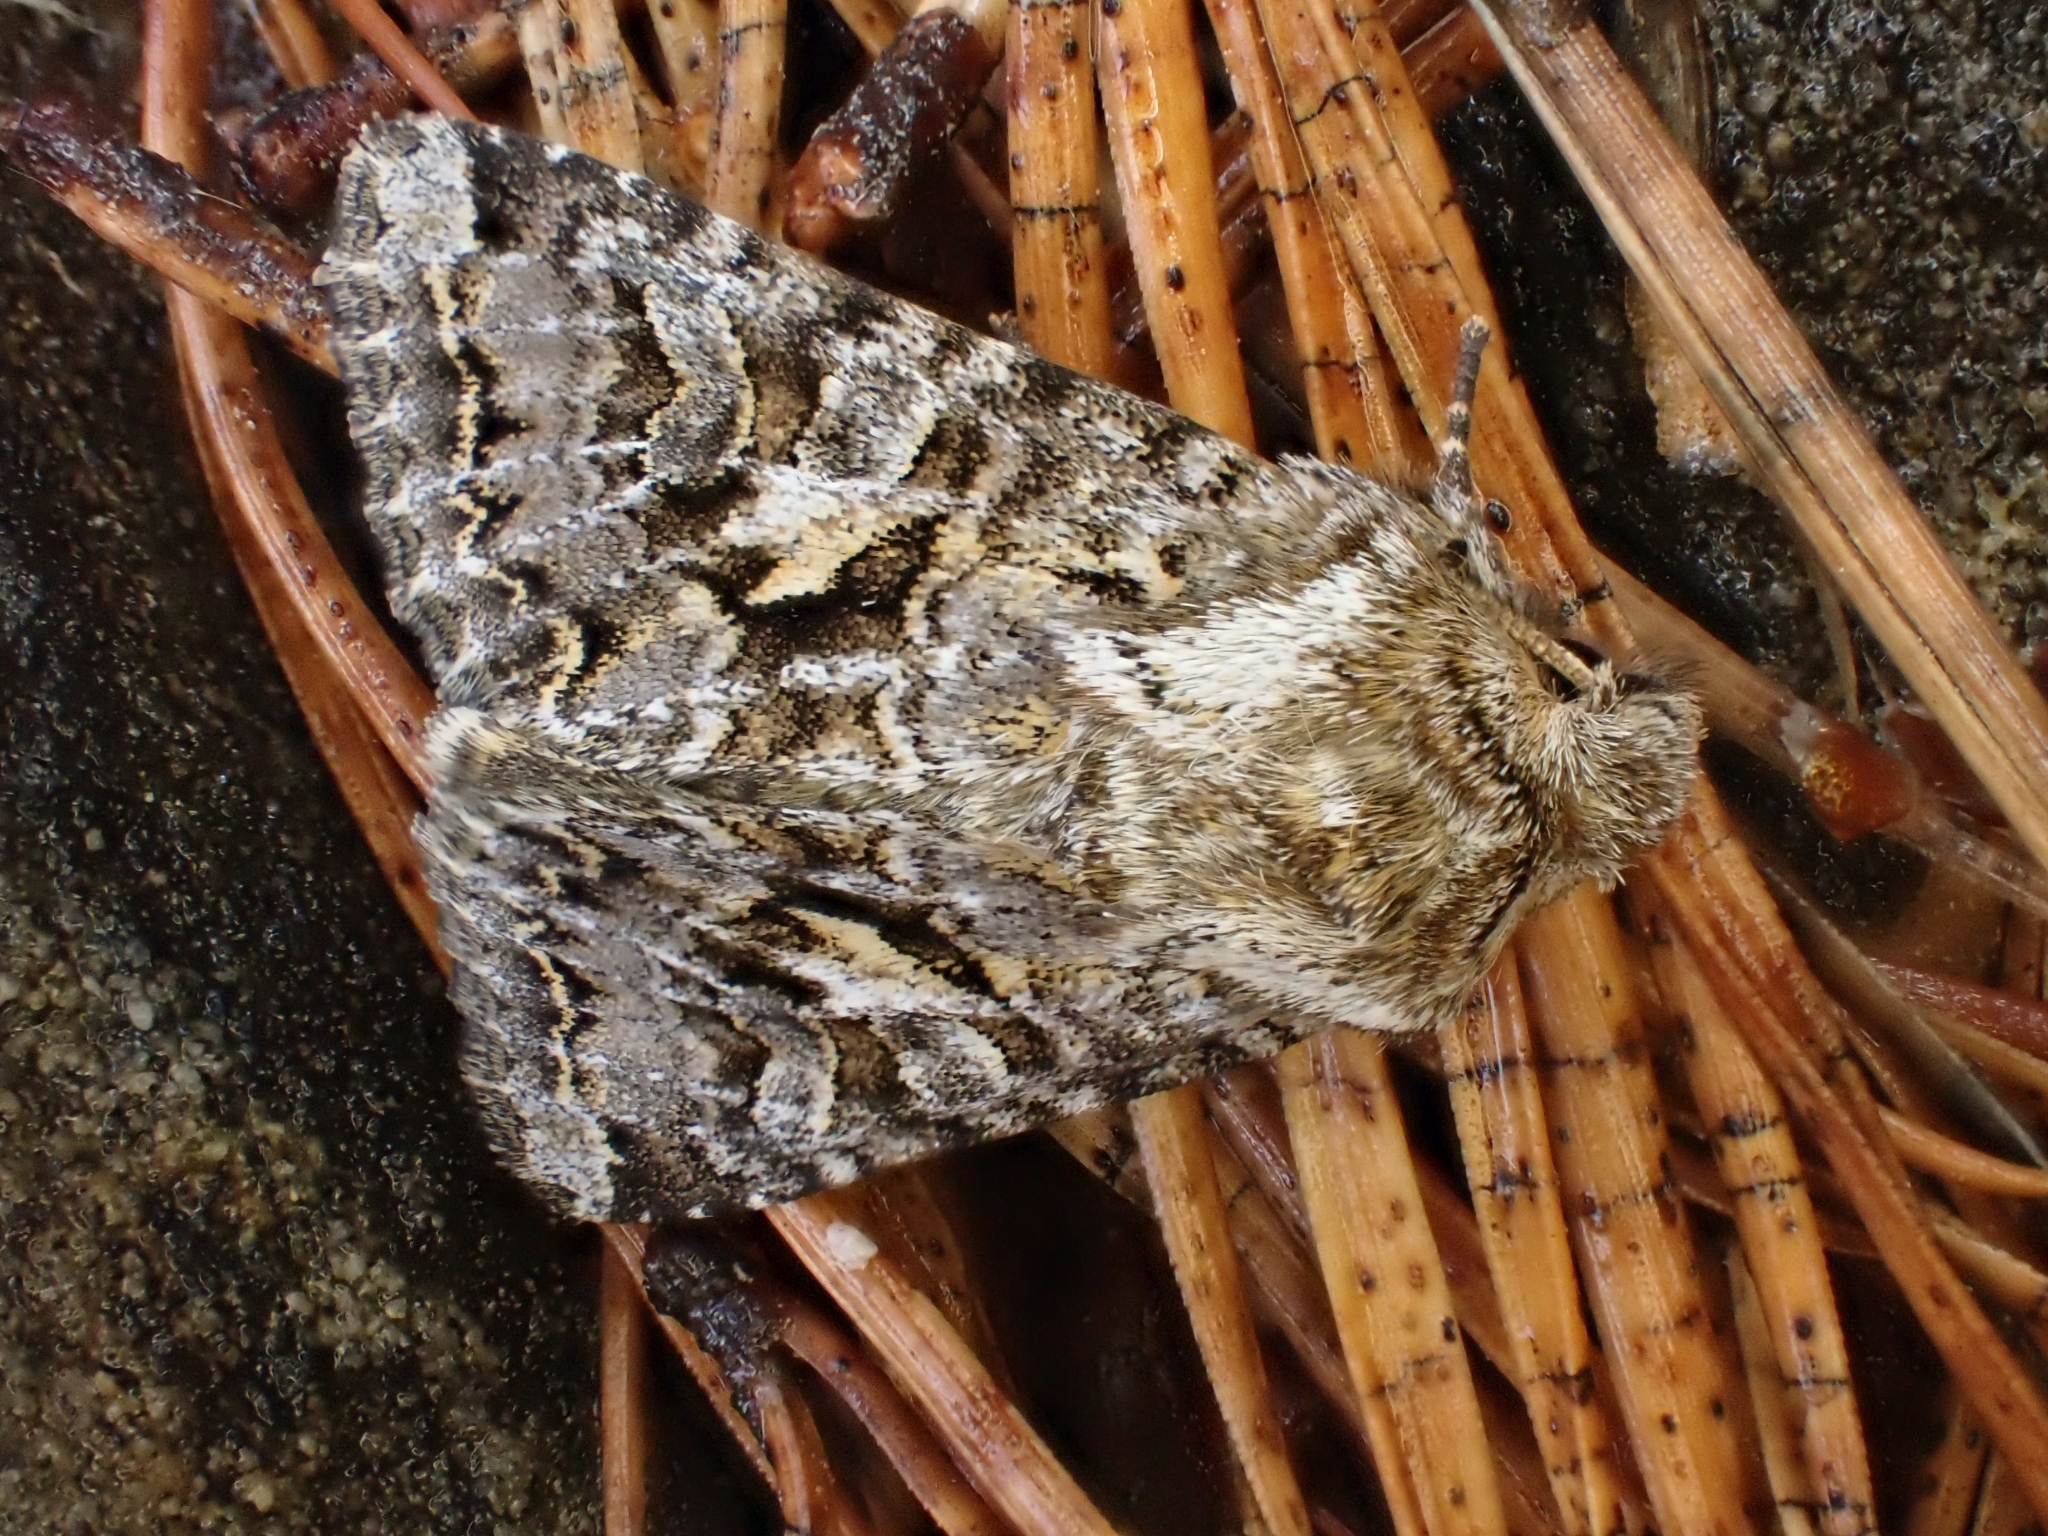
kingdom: Animalia
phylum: Arthropoda
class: Insecta
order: Lepidoptera
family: Noctuidae
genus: Hada
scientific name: Hada plebeja
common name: Shears
